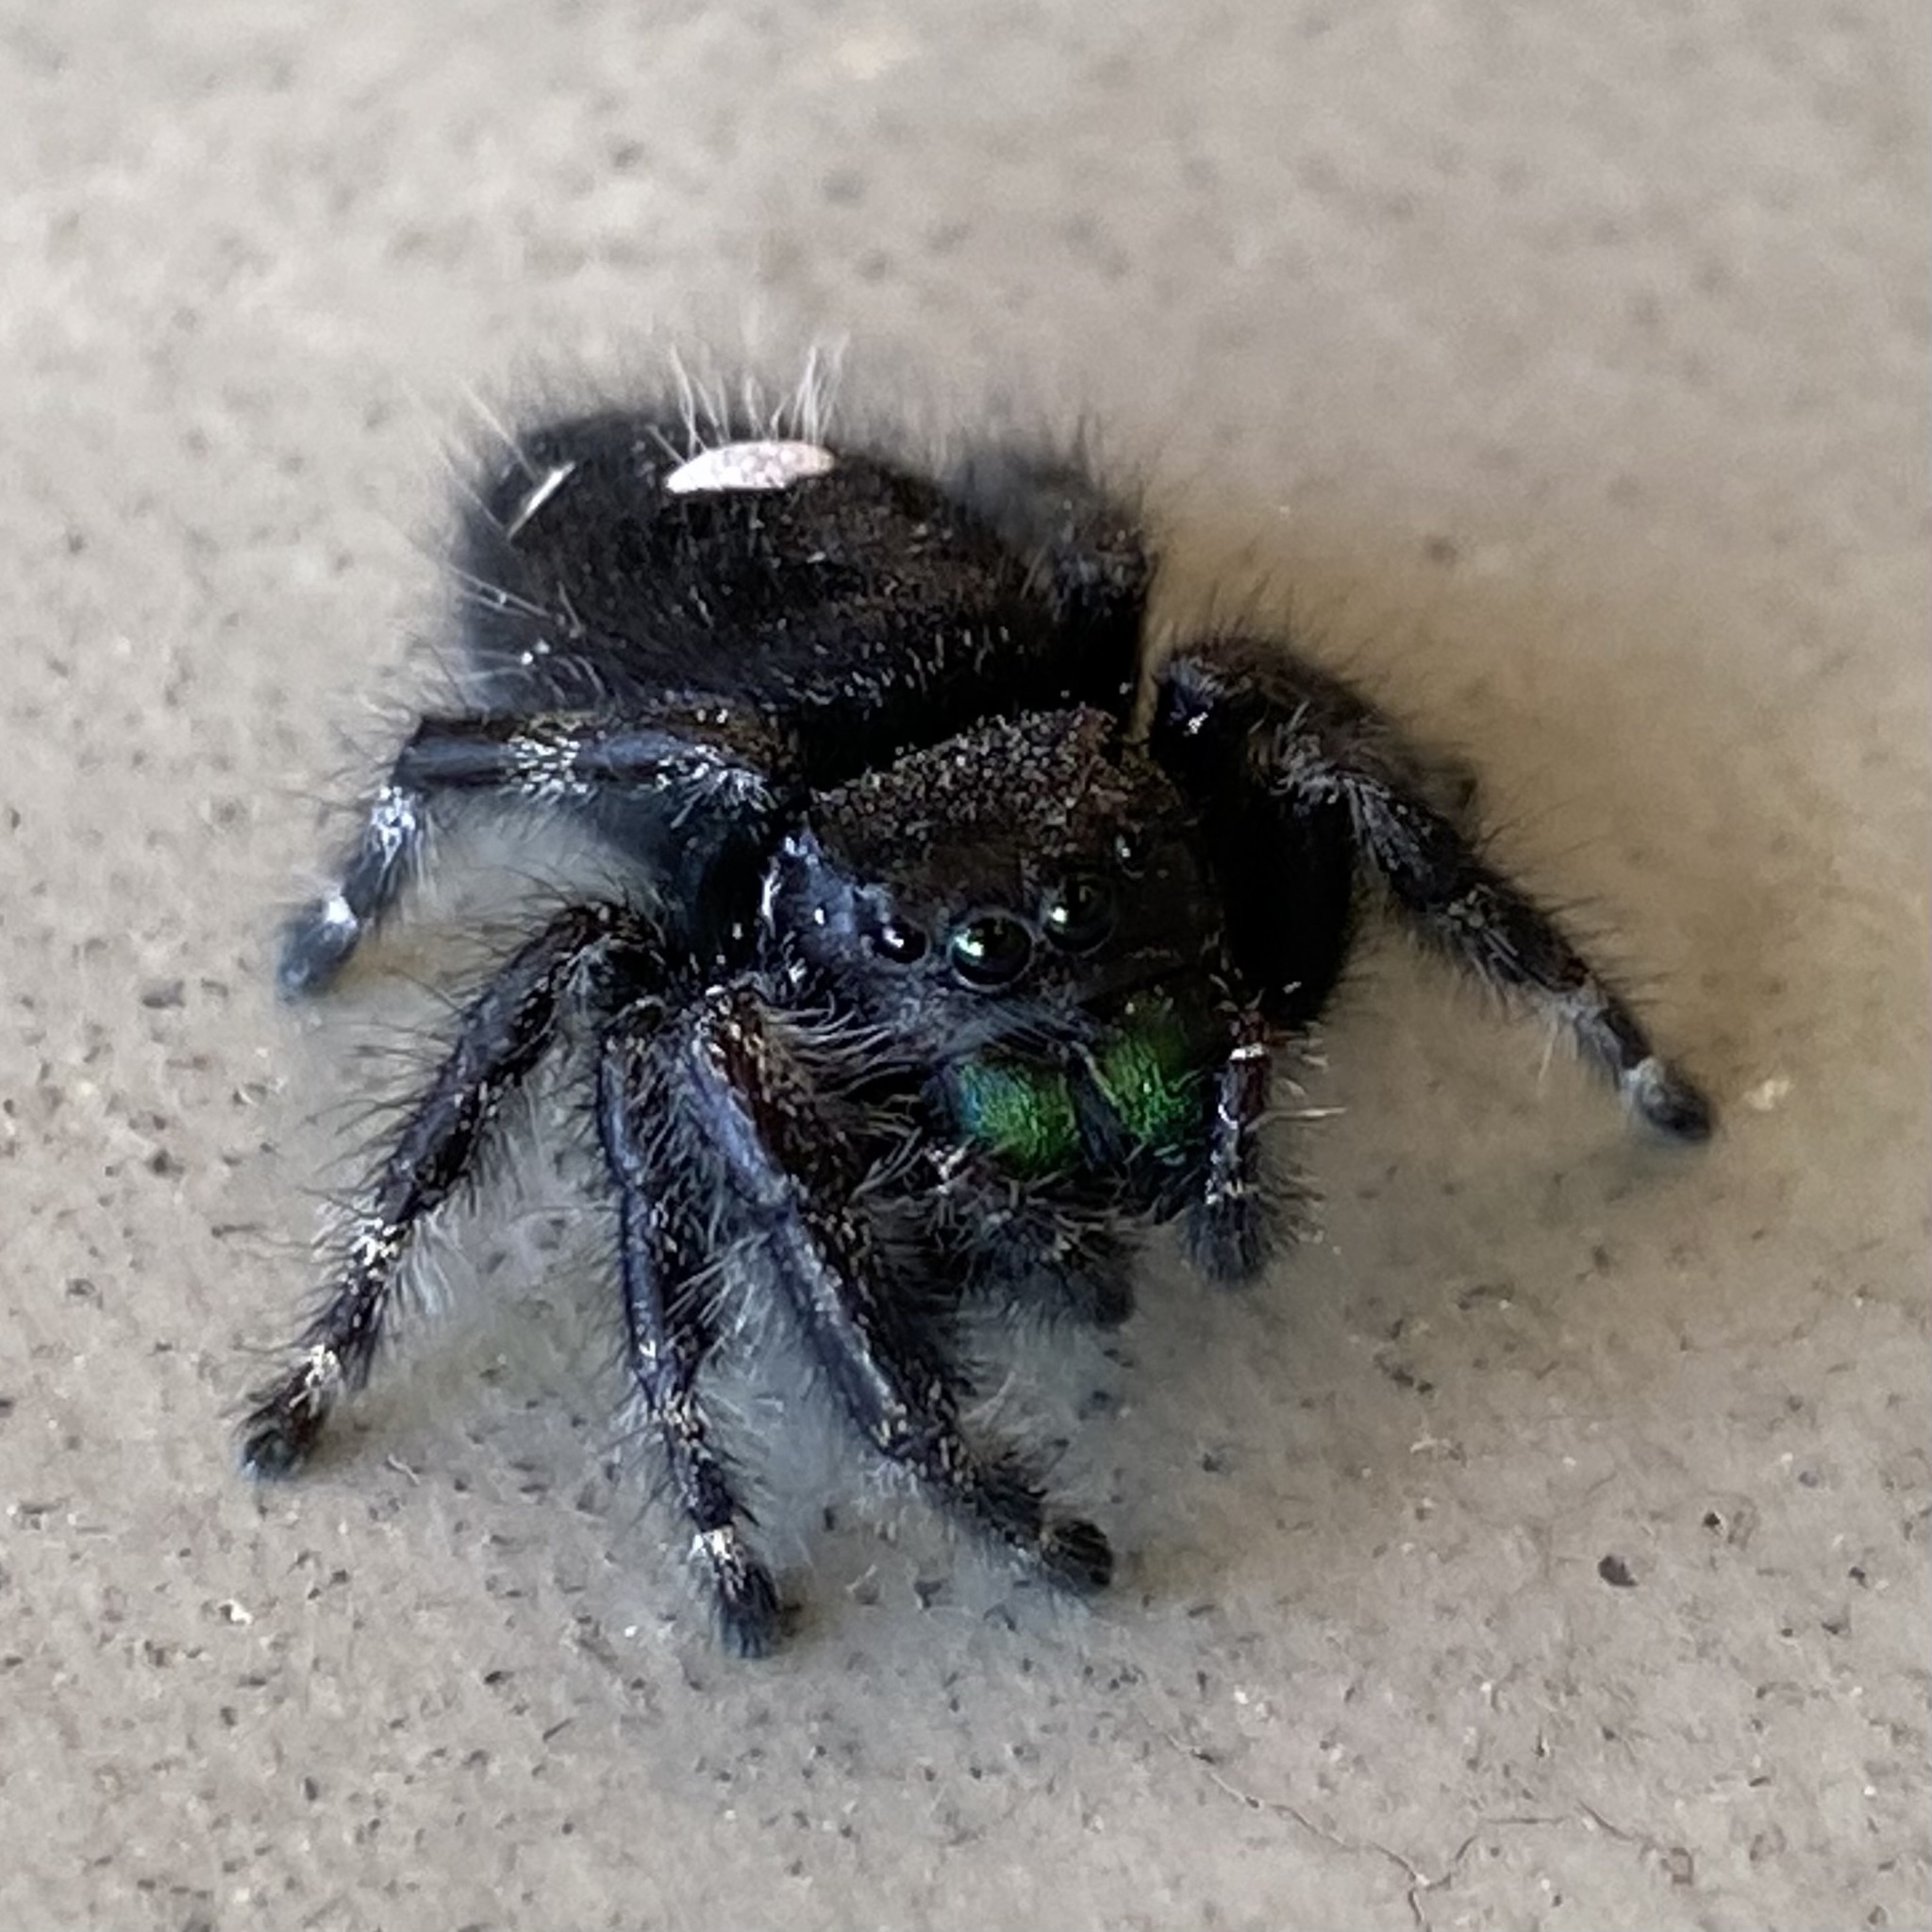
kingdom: Animalia
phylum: Arthropoda
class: Arachnida
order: Araneae
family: Salticidae
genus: Phidippus
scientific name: Phidippus audax
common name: Bold jumper
